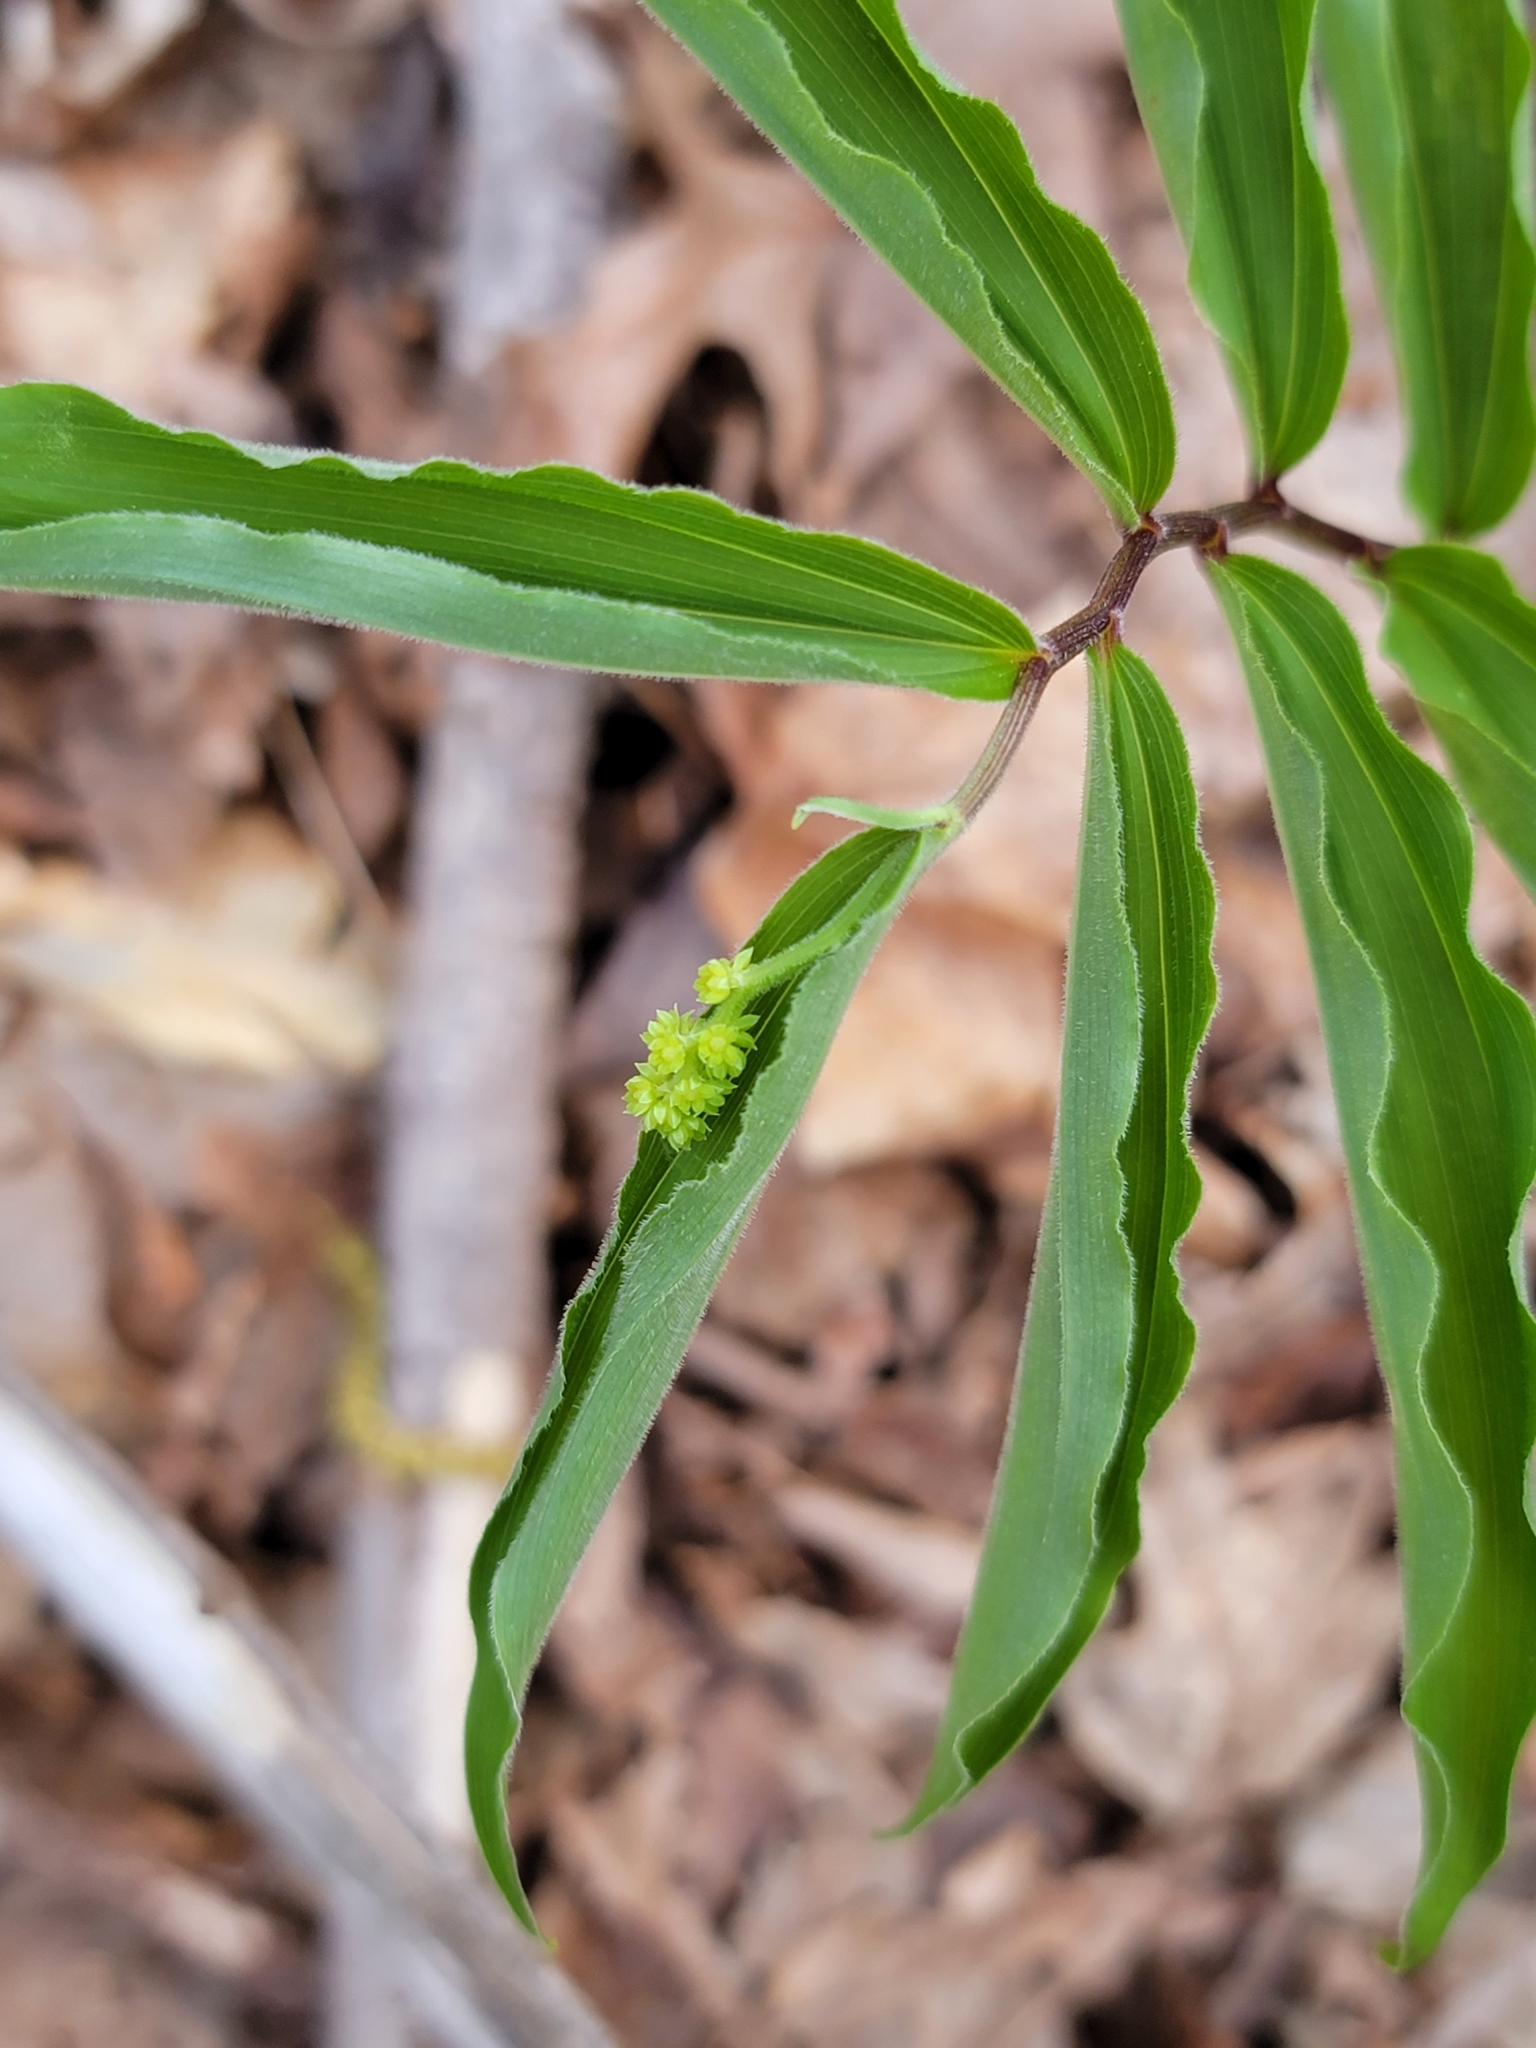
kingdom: Plantae
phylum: Tracheophyta
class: Liliopsida
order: Asparagales
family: Asparagaceae
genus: Maianthemum
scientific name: Maianthemum racemosum
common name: False spikenard
